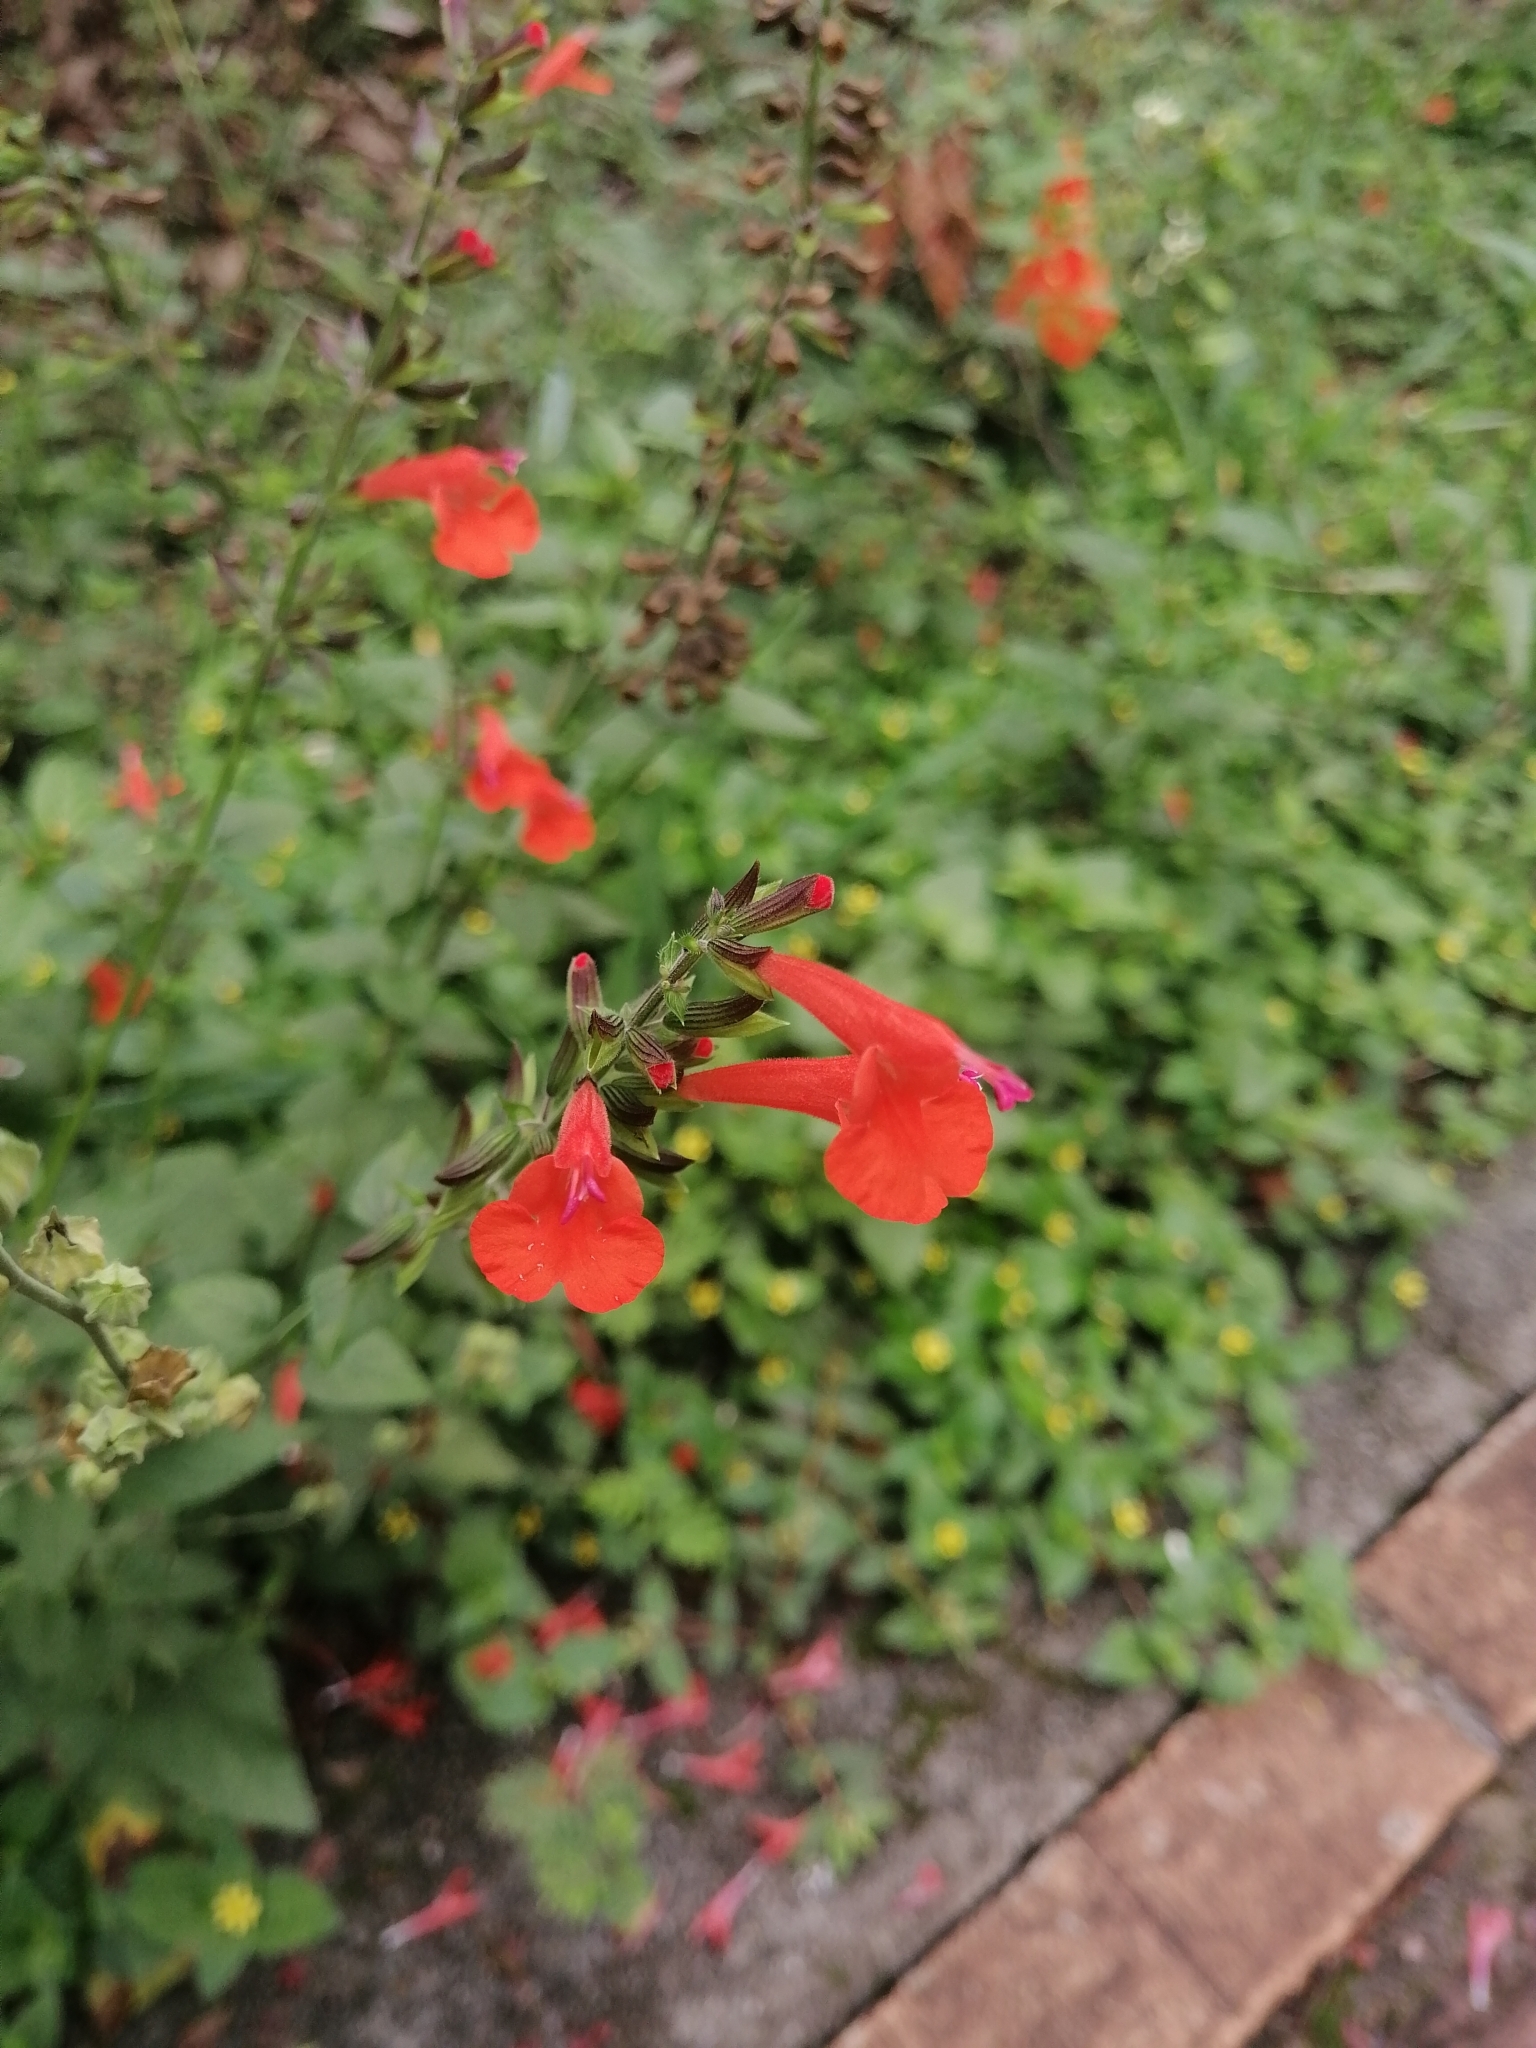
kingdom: Plantae
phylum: Tracheophyta
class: Magnoliopsida
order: Lamiales
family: Lamiaceae
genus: Salvia
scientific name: Salvia coccinea
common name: Blood sage
